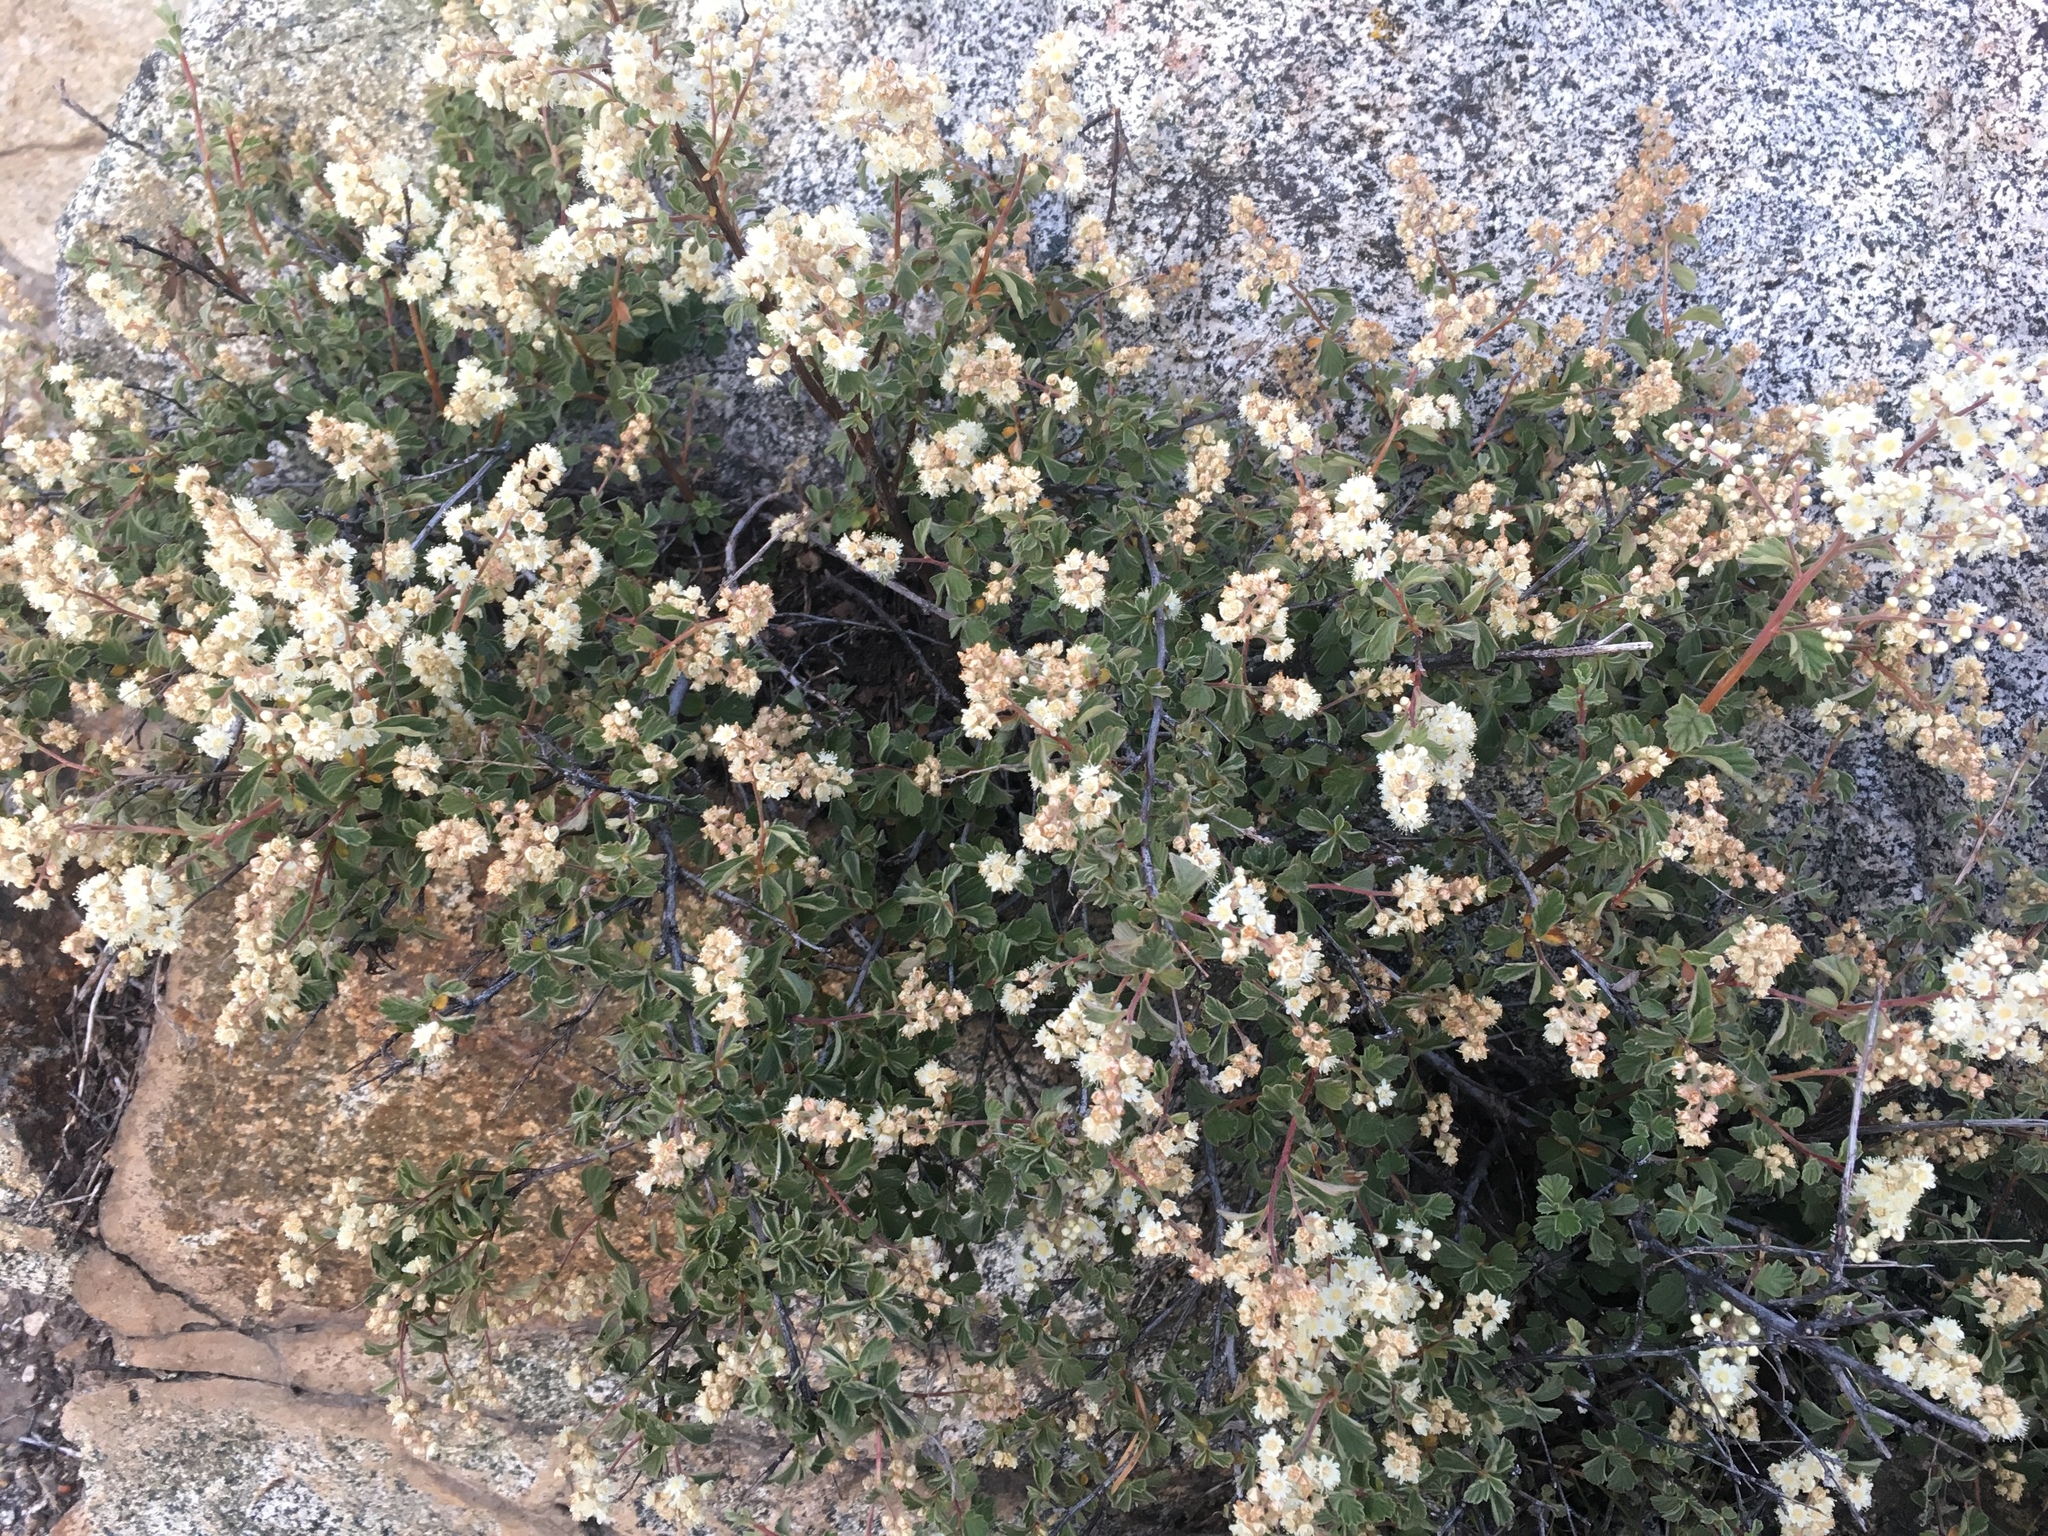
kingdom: Plantae
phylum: Tracheophyta
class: Magnoliopsida
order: Rosales
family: Rosaceae
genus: Holodiscus
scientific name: Holodiscus discolor
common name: Oceanspray
